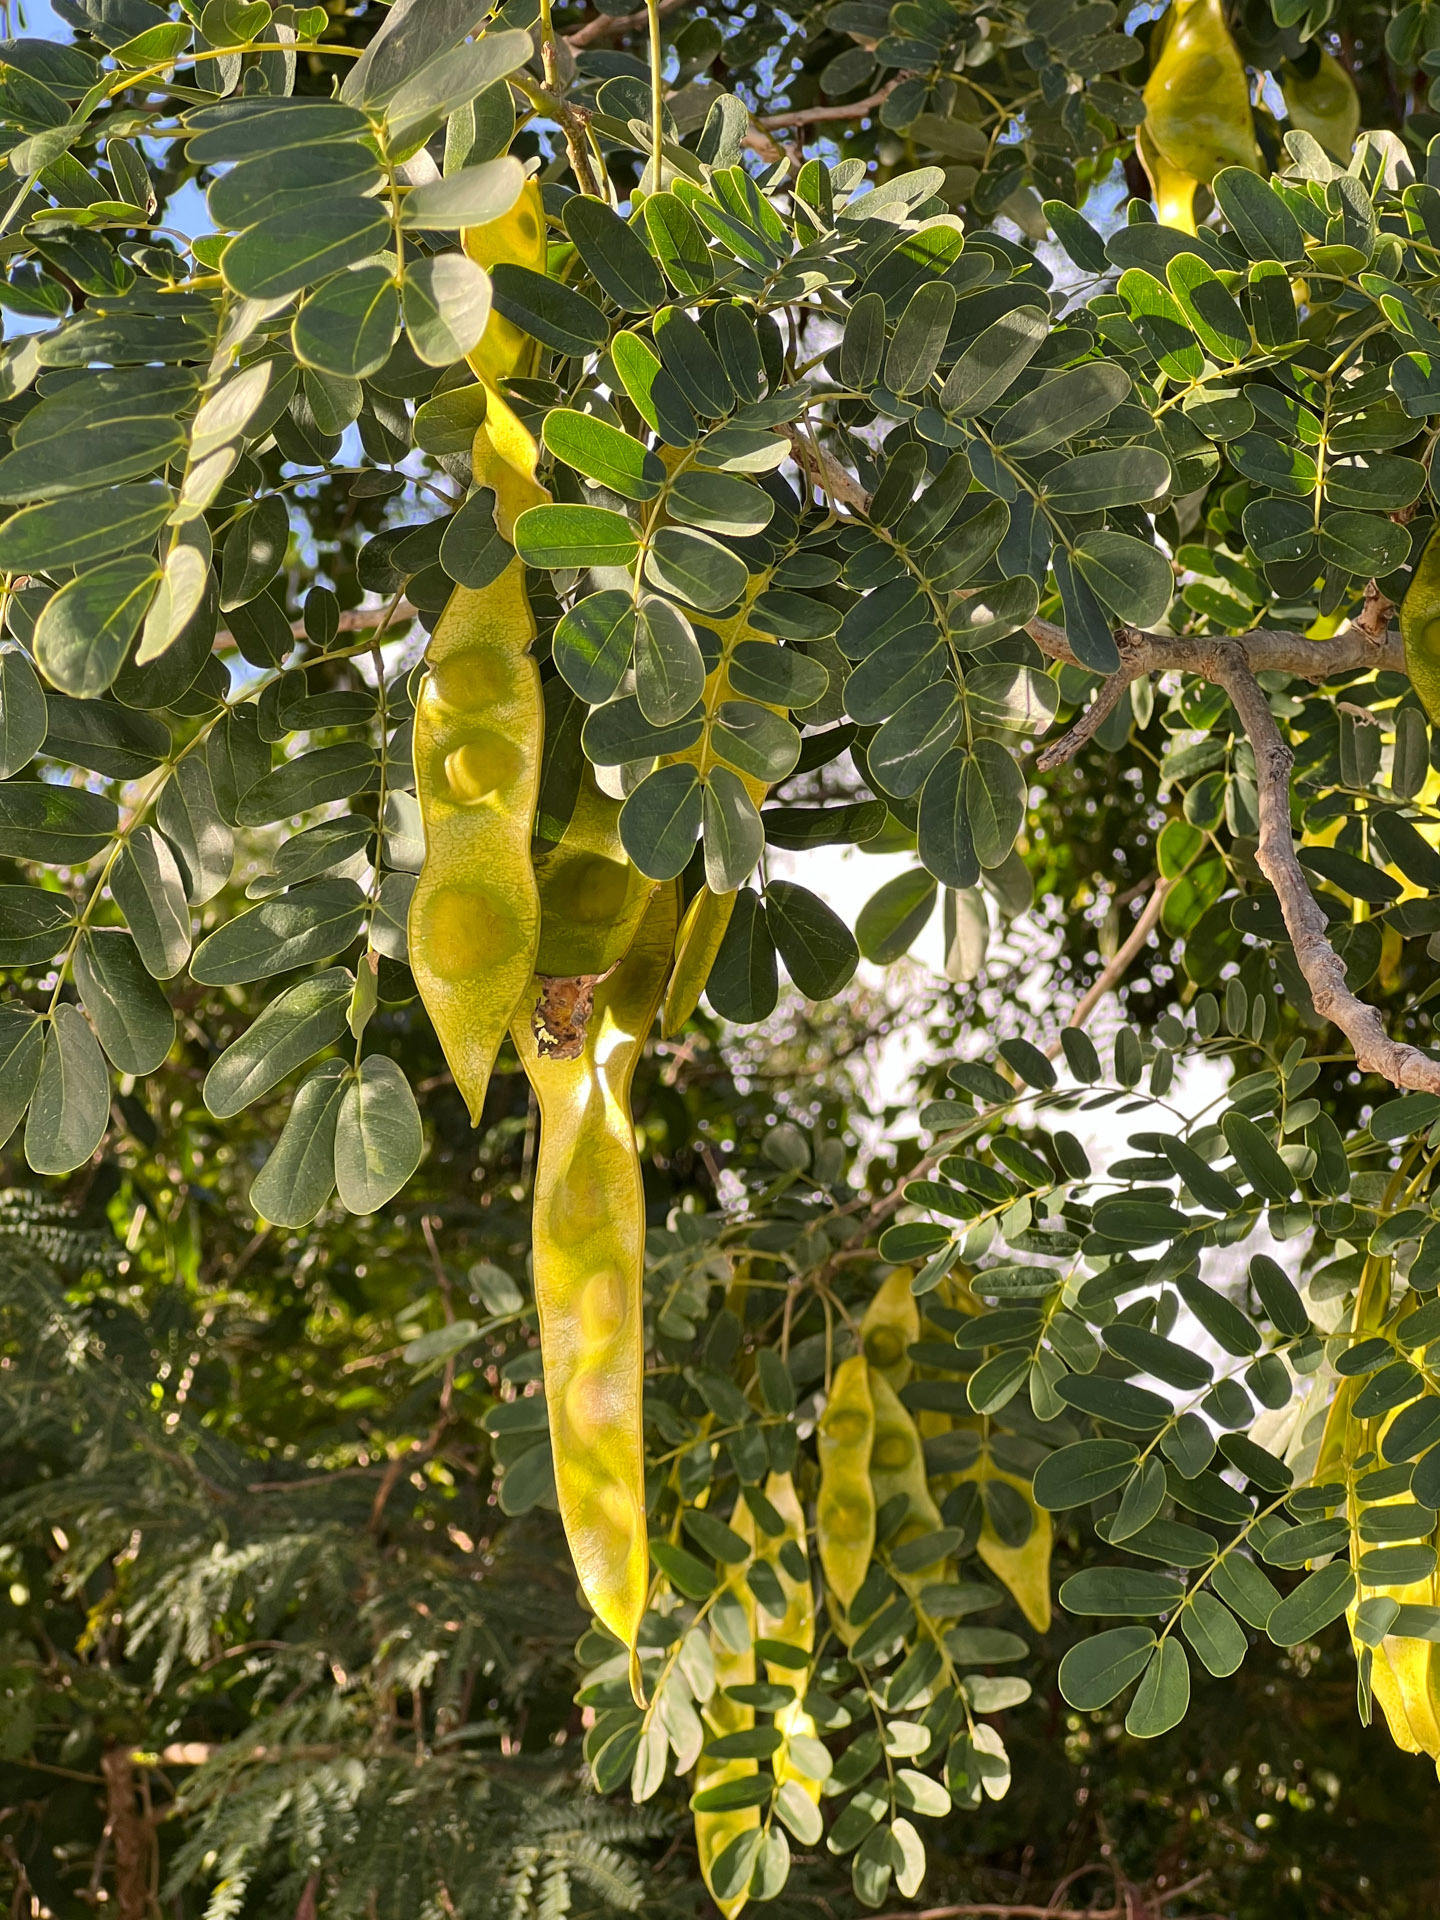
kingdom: Plantae
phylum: Tracheophyta
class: Magnoliopsida
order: Fabales
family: Fabaceae
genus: Albizia
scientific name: Albizia lebbeck
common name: Woman's tongue
